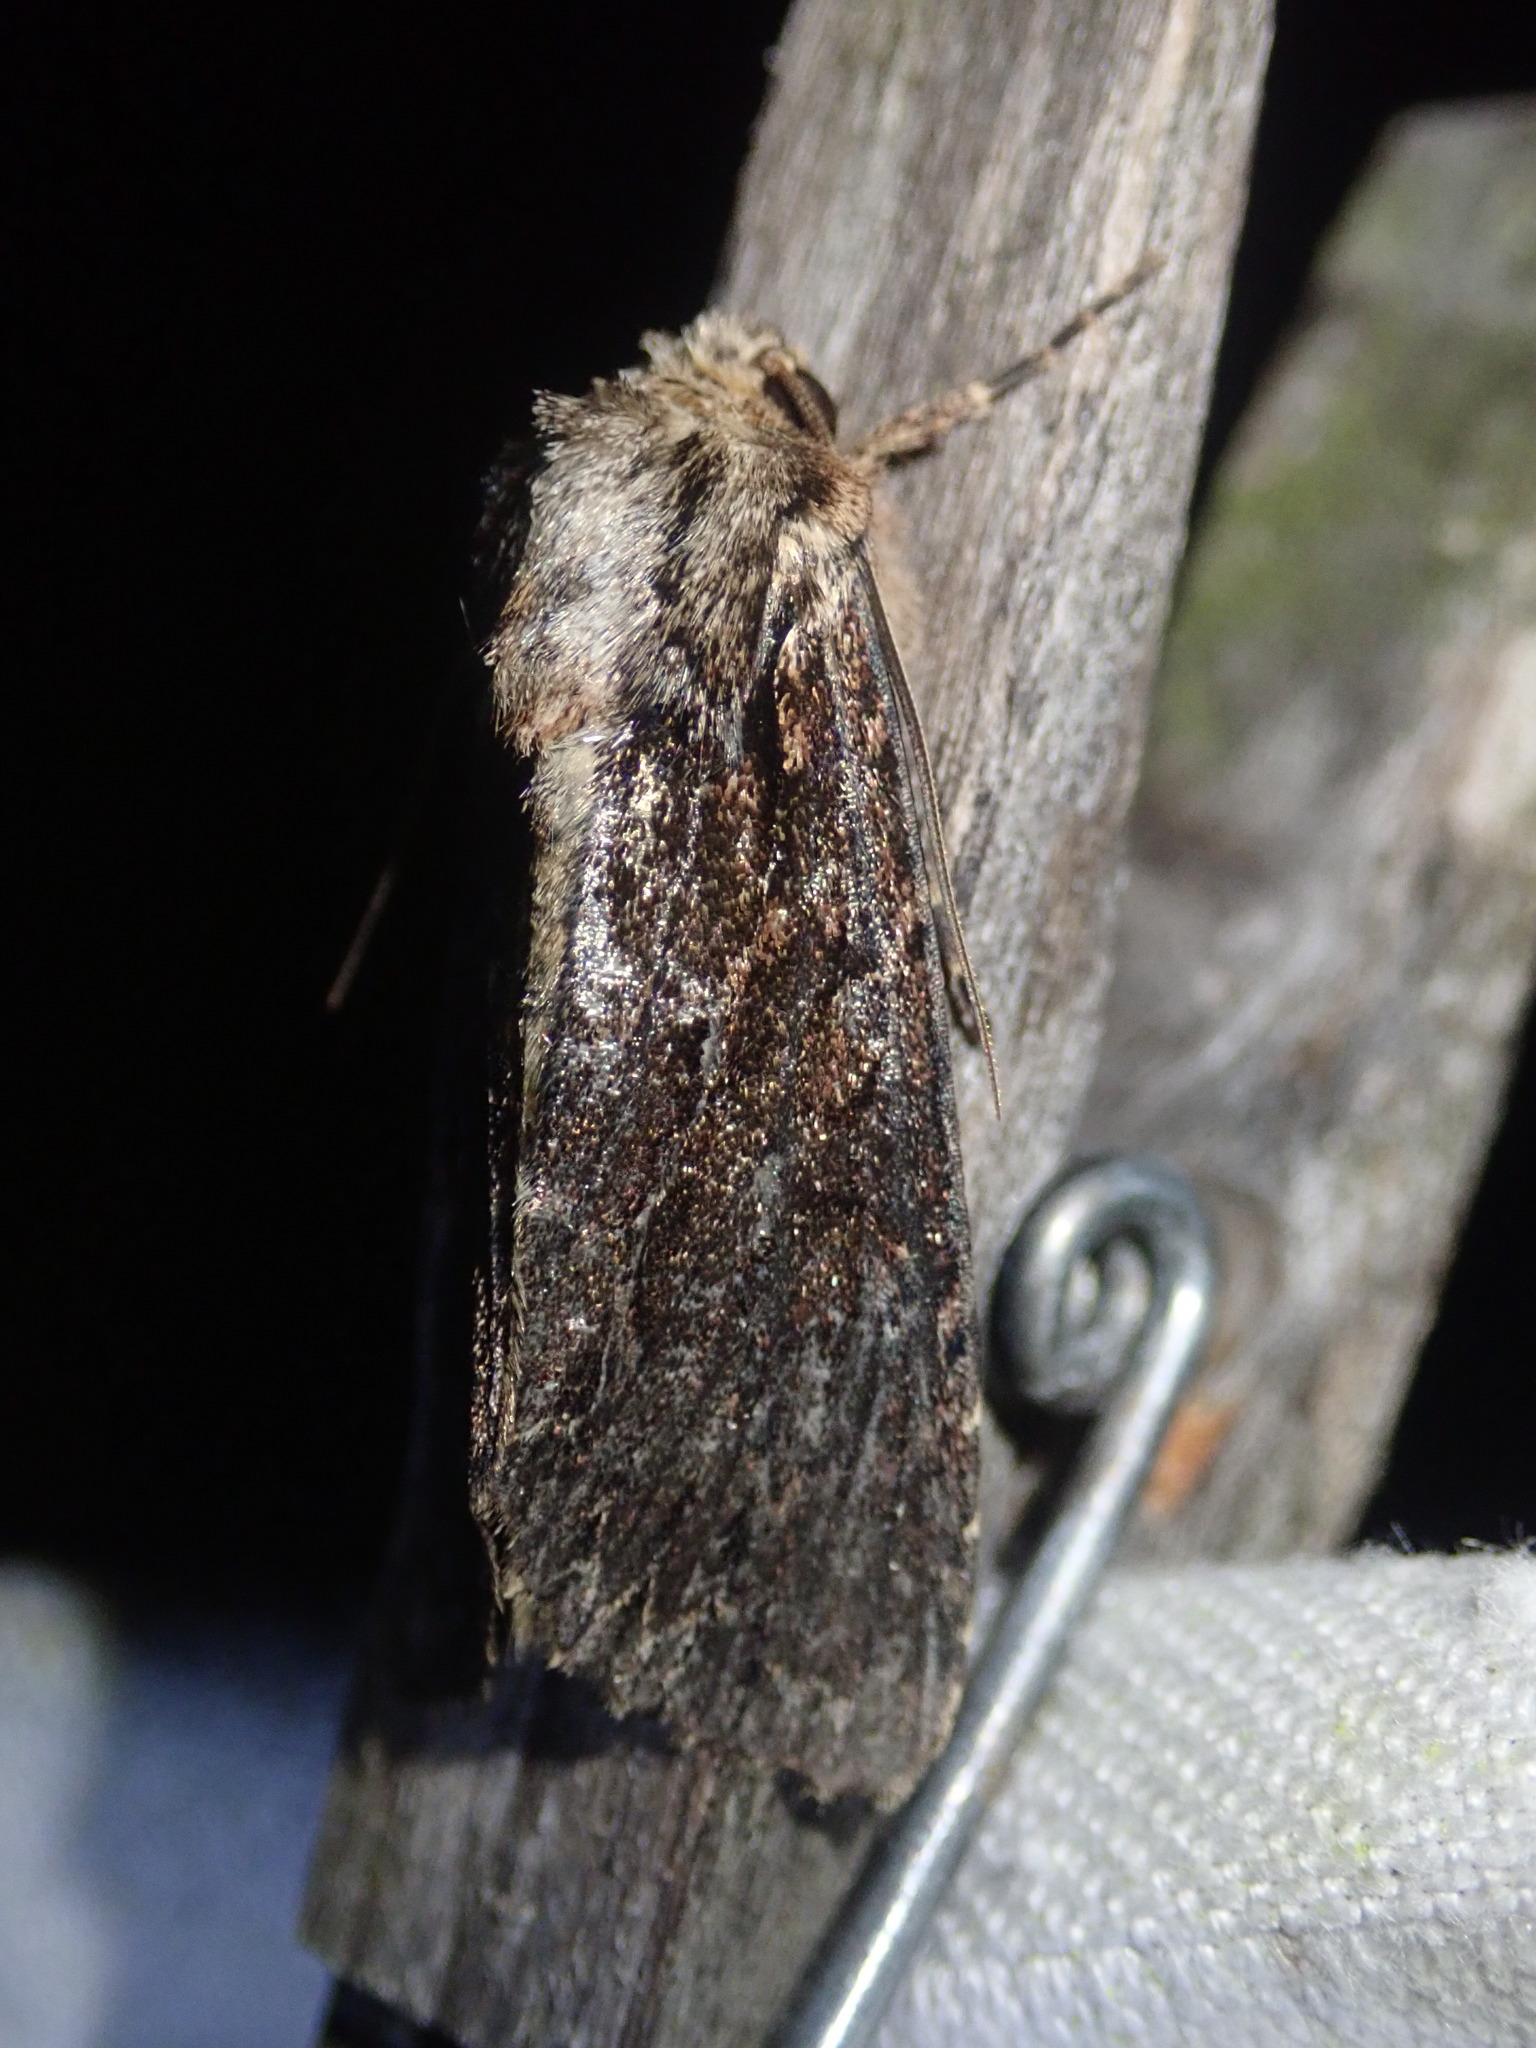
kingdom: Animalia
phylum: Arthropoda
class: Insecta
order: Lepidoptera
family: Noctuidae
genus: Apamea
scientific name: Apamea monoglypha
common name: Dark arches
